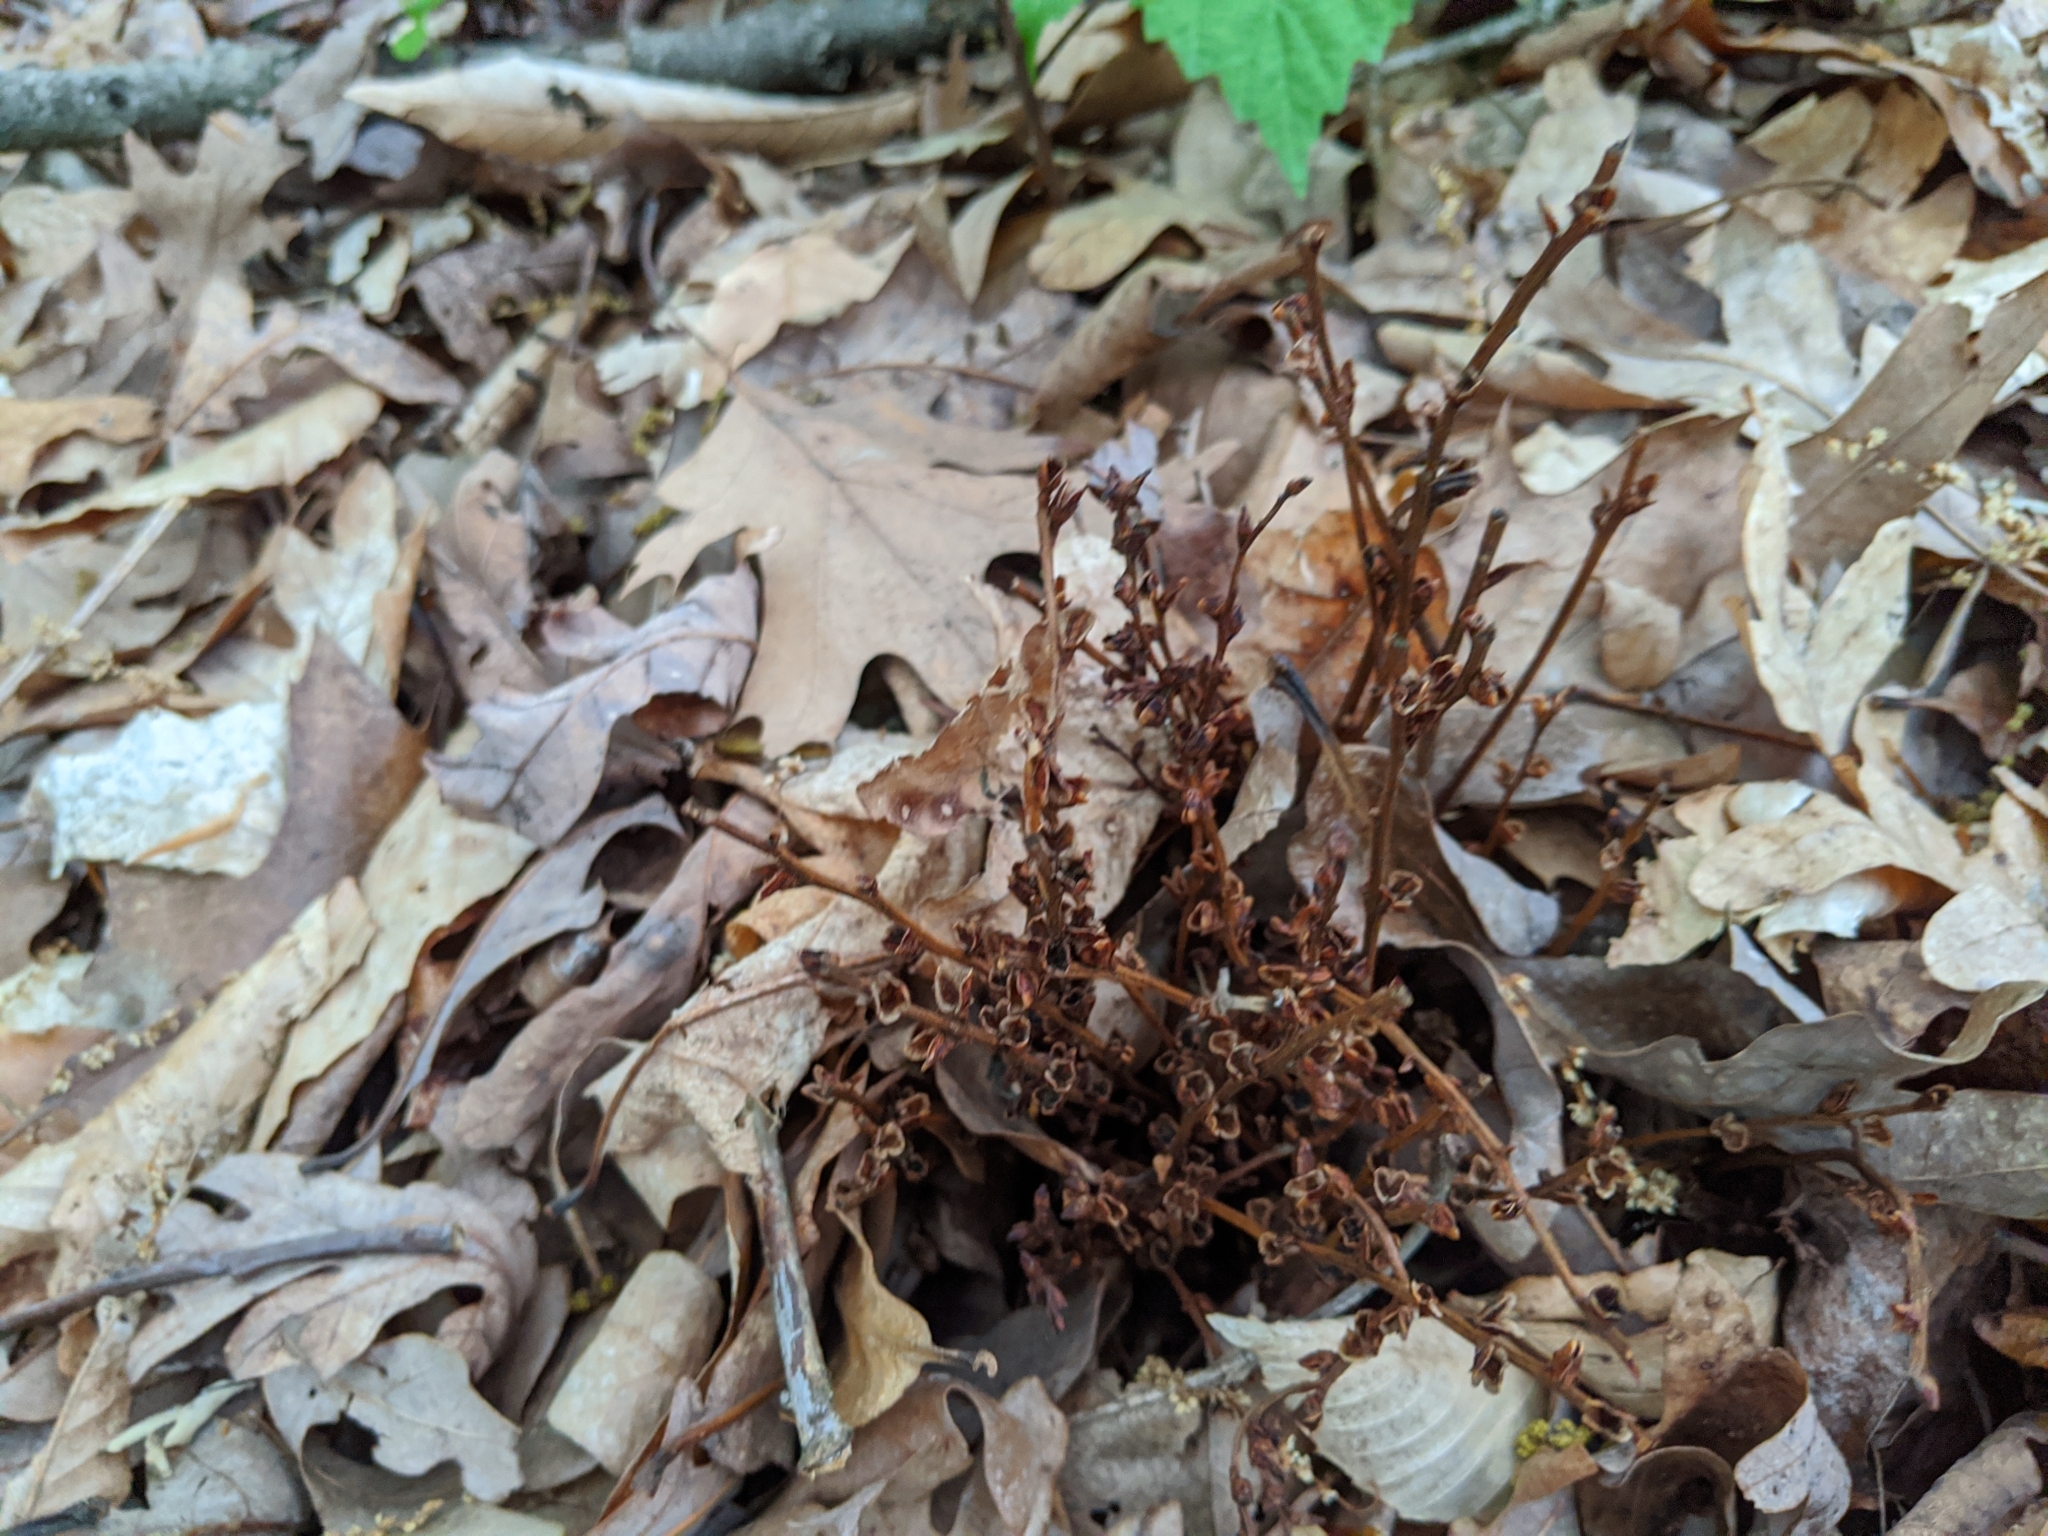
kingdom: Plantae
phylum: Tracheophyta
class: Magnoliopsida
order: Lamiales
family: Orobanchaceae
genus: Epifagus
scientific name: Epifagus virginiana
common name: Beechdrops
